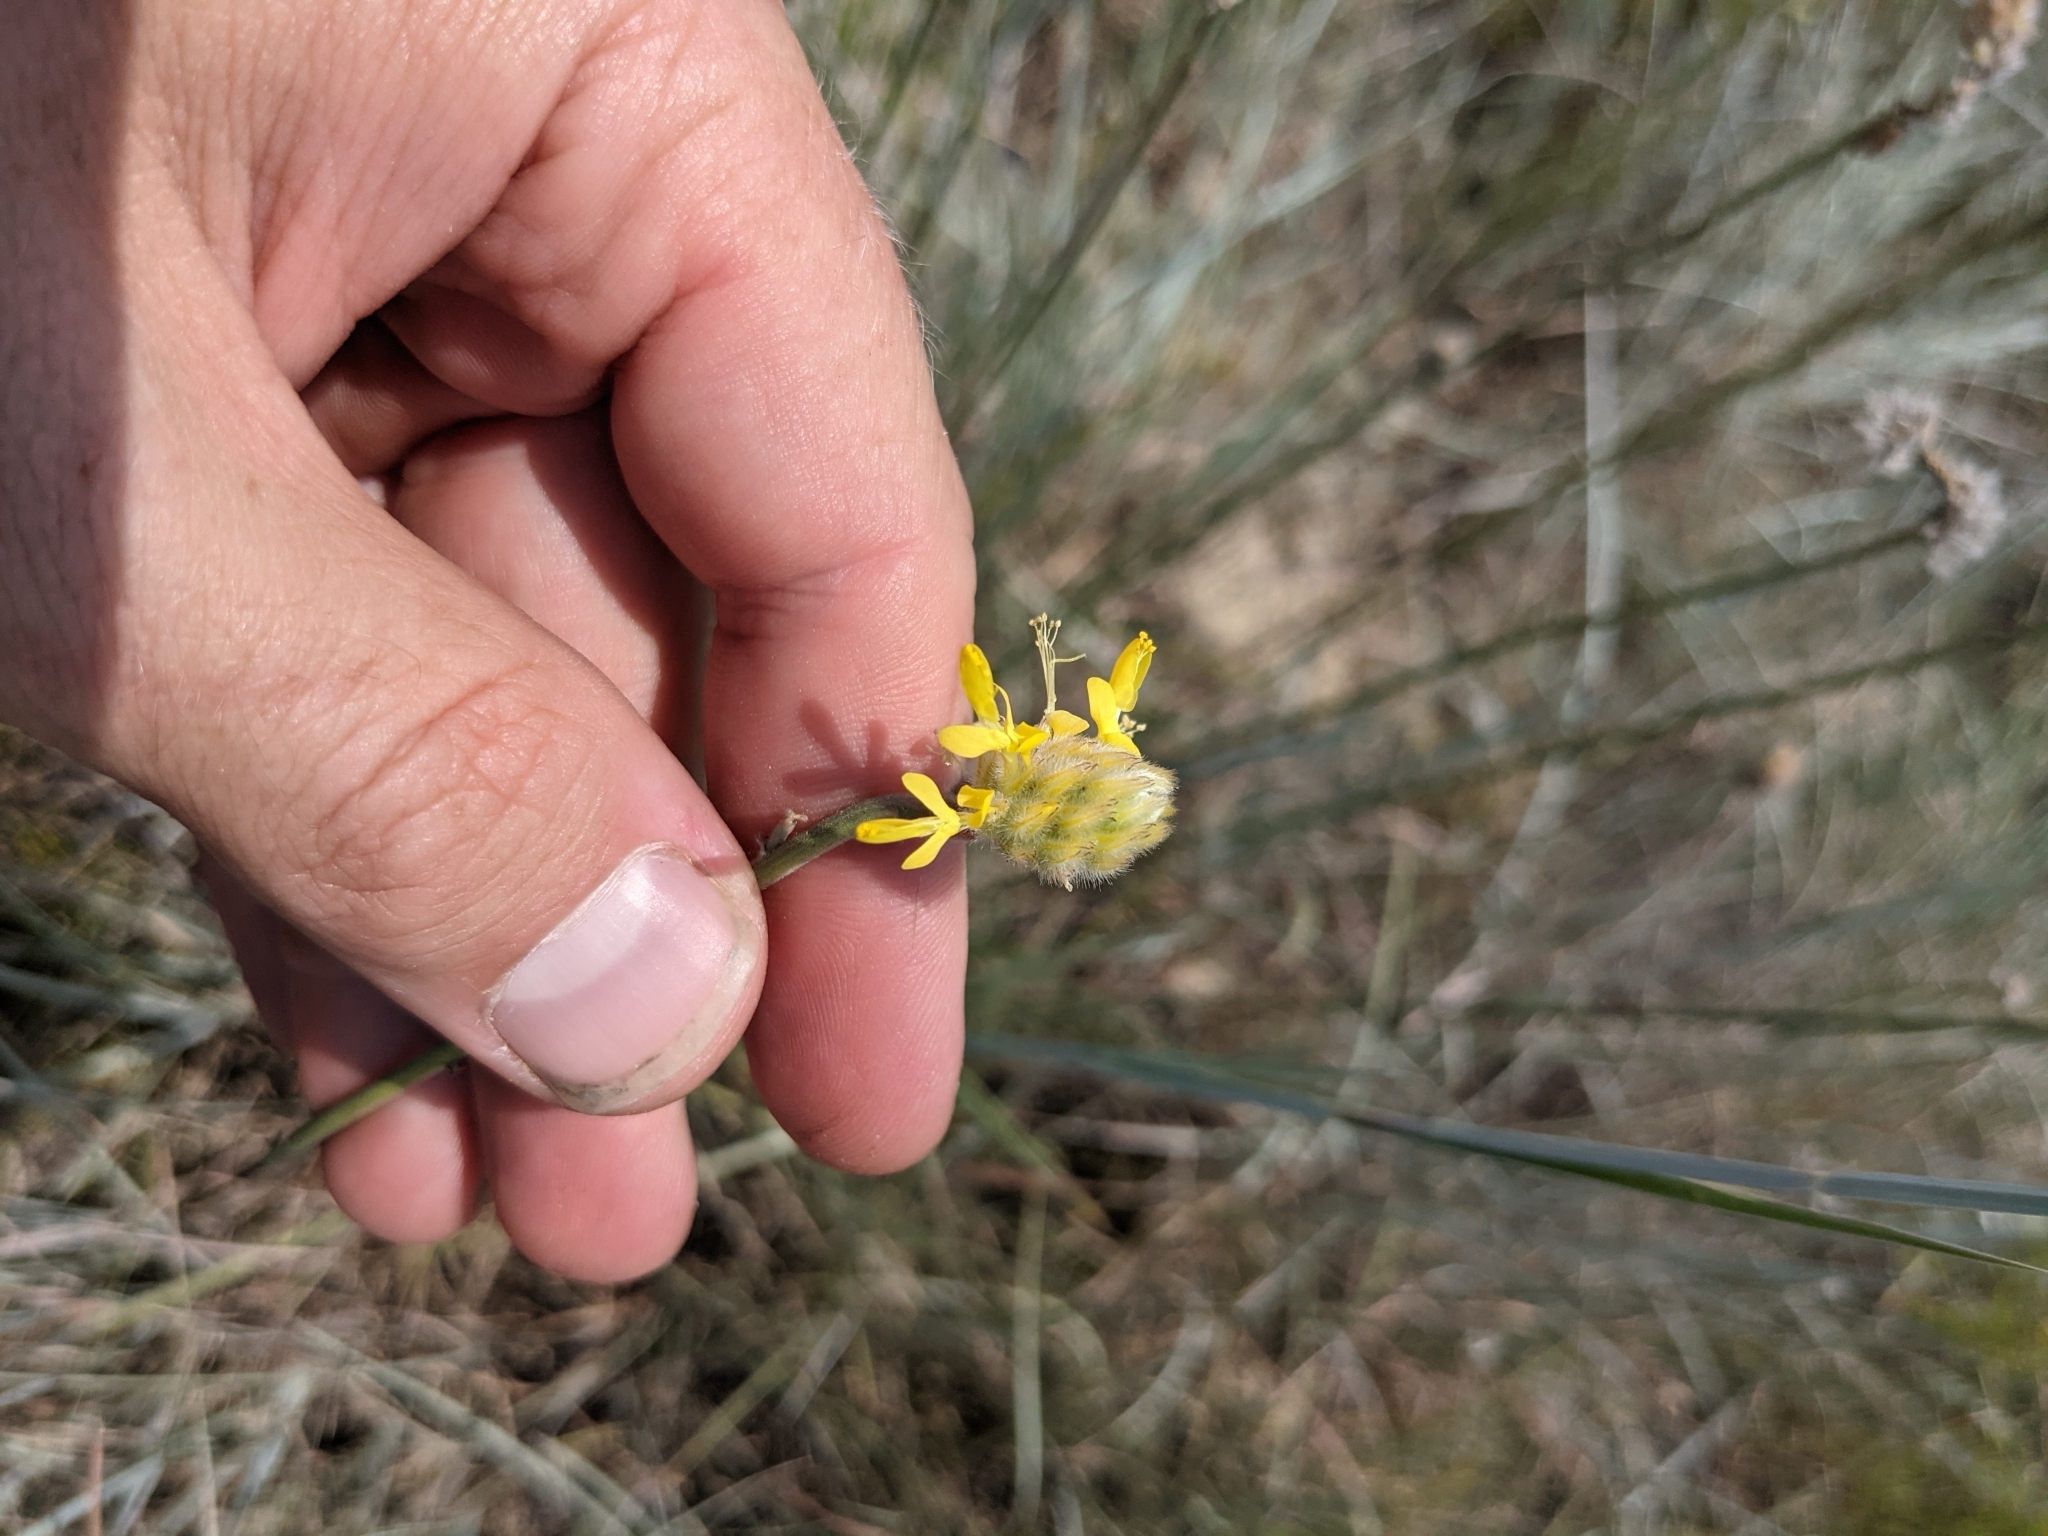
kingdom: Plantae
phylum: Tracheophyta
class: Magnoliopsida
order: Fabales
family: Fabaceae
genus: Dalea
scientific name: Dalea aurea
